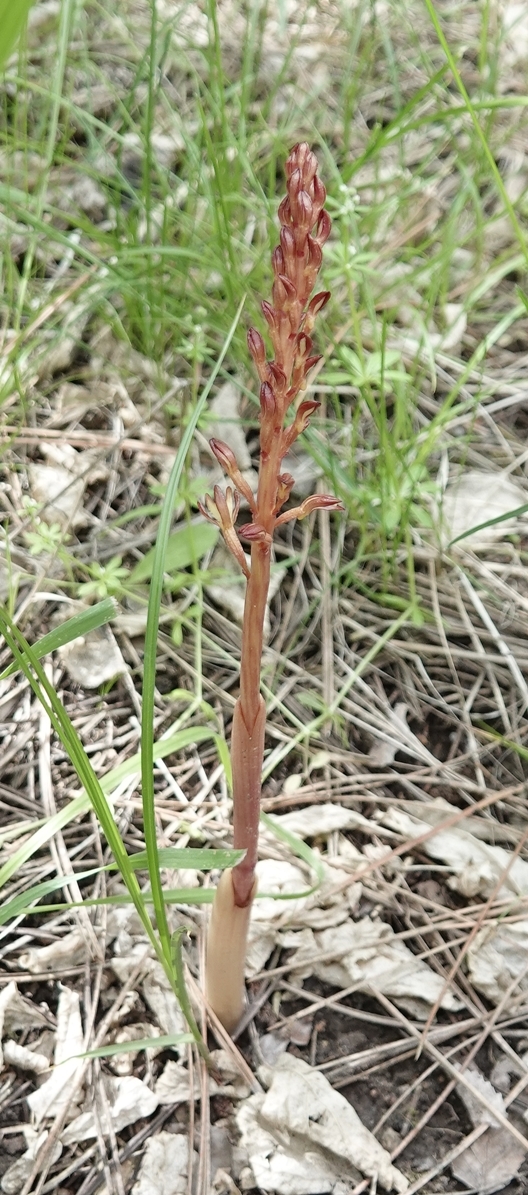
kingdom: Plantae
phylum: Tracheophyta
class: Liliopsida
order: Asparagales
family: Orchidaceae
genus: Corallorhiza
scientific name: Corallorhiza maculata
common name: Spotted coralroot
